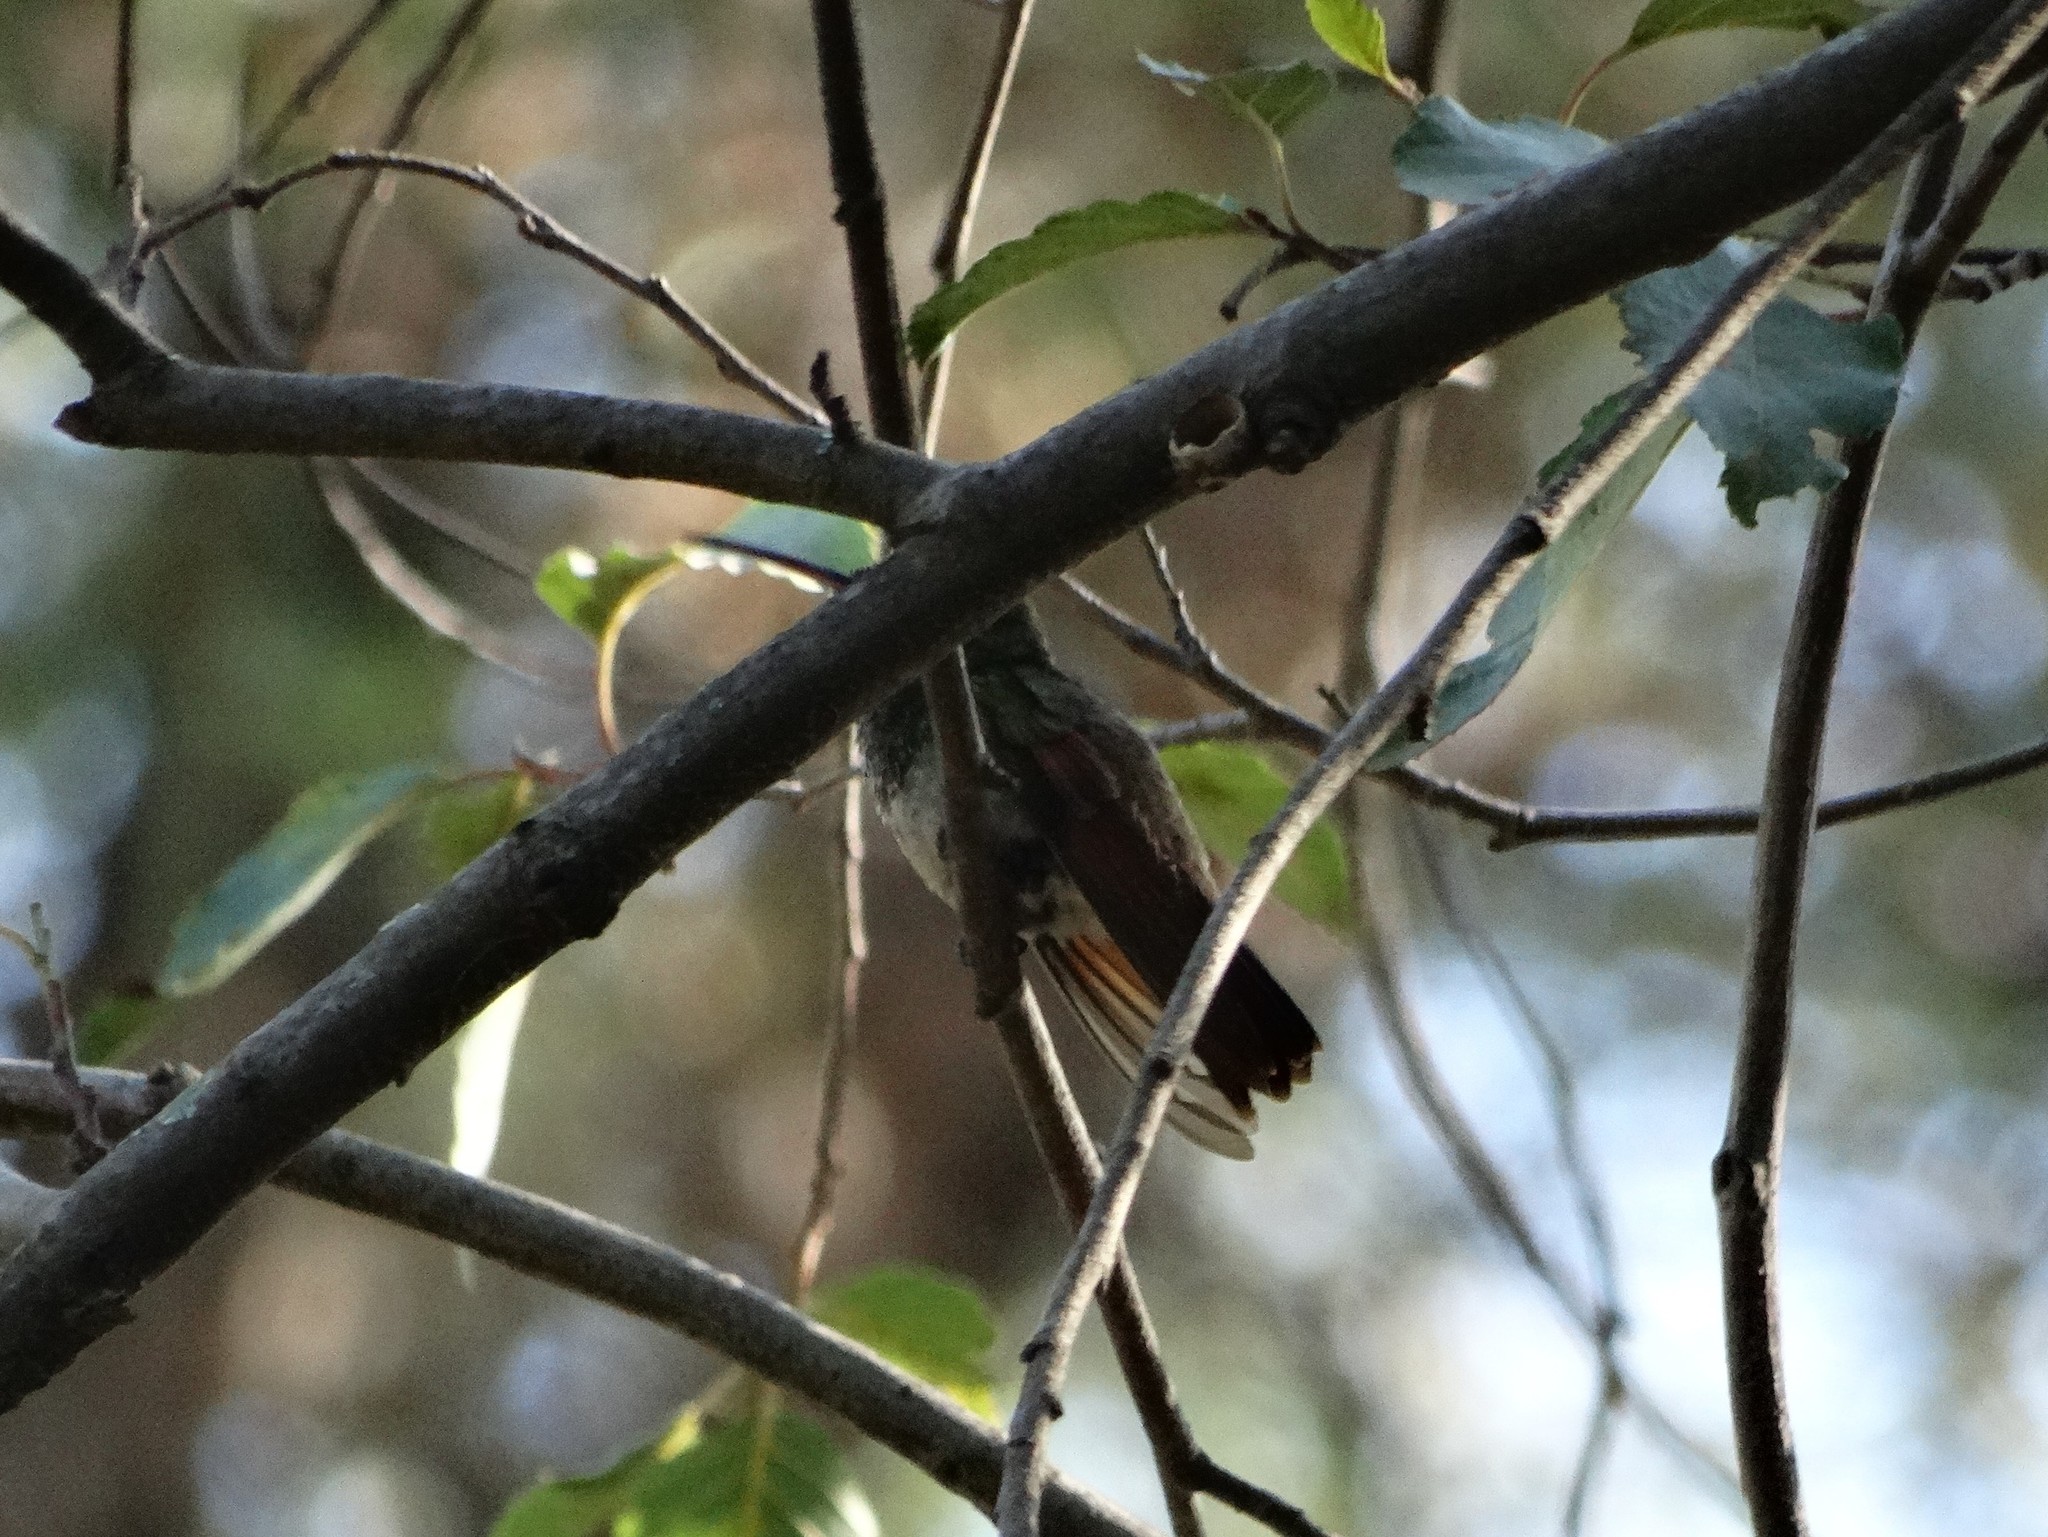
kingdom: Animalia
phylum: Chordata
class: Aves
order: Apodiformes
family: Trochilidae
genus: Saucerottia
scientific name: Saucerottia beryllina
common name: Berylline hummingbird
